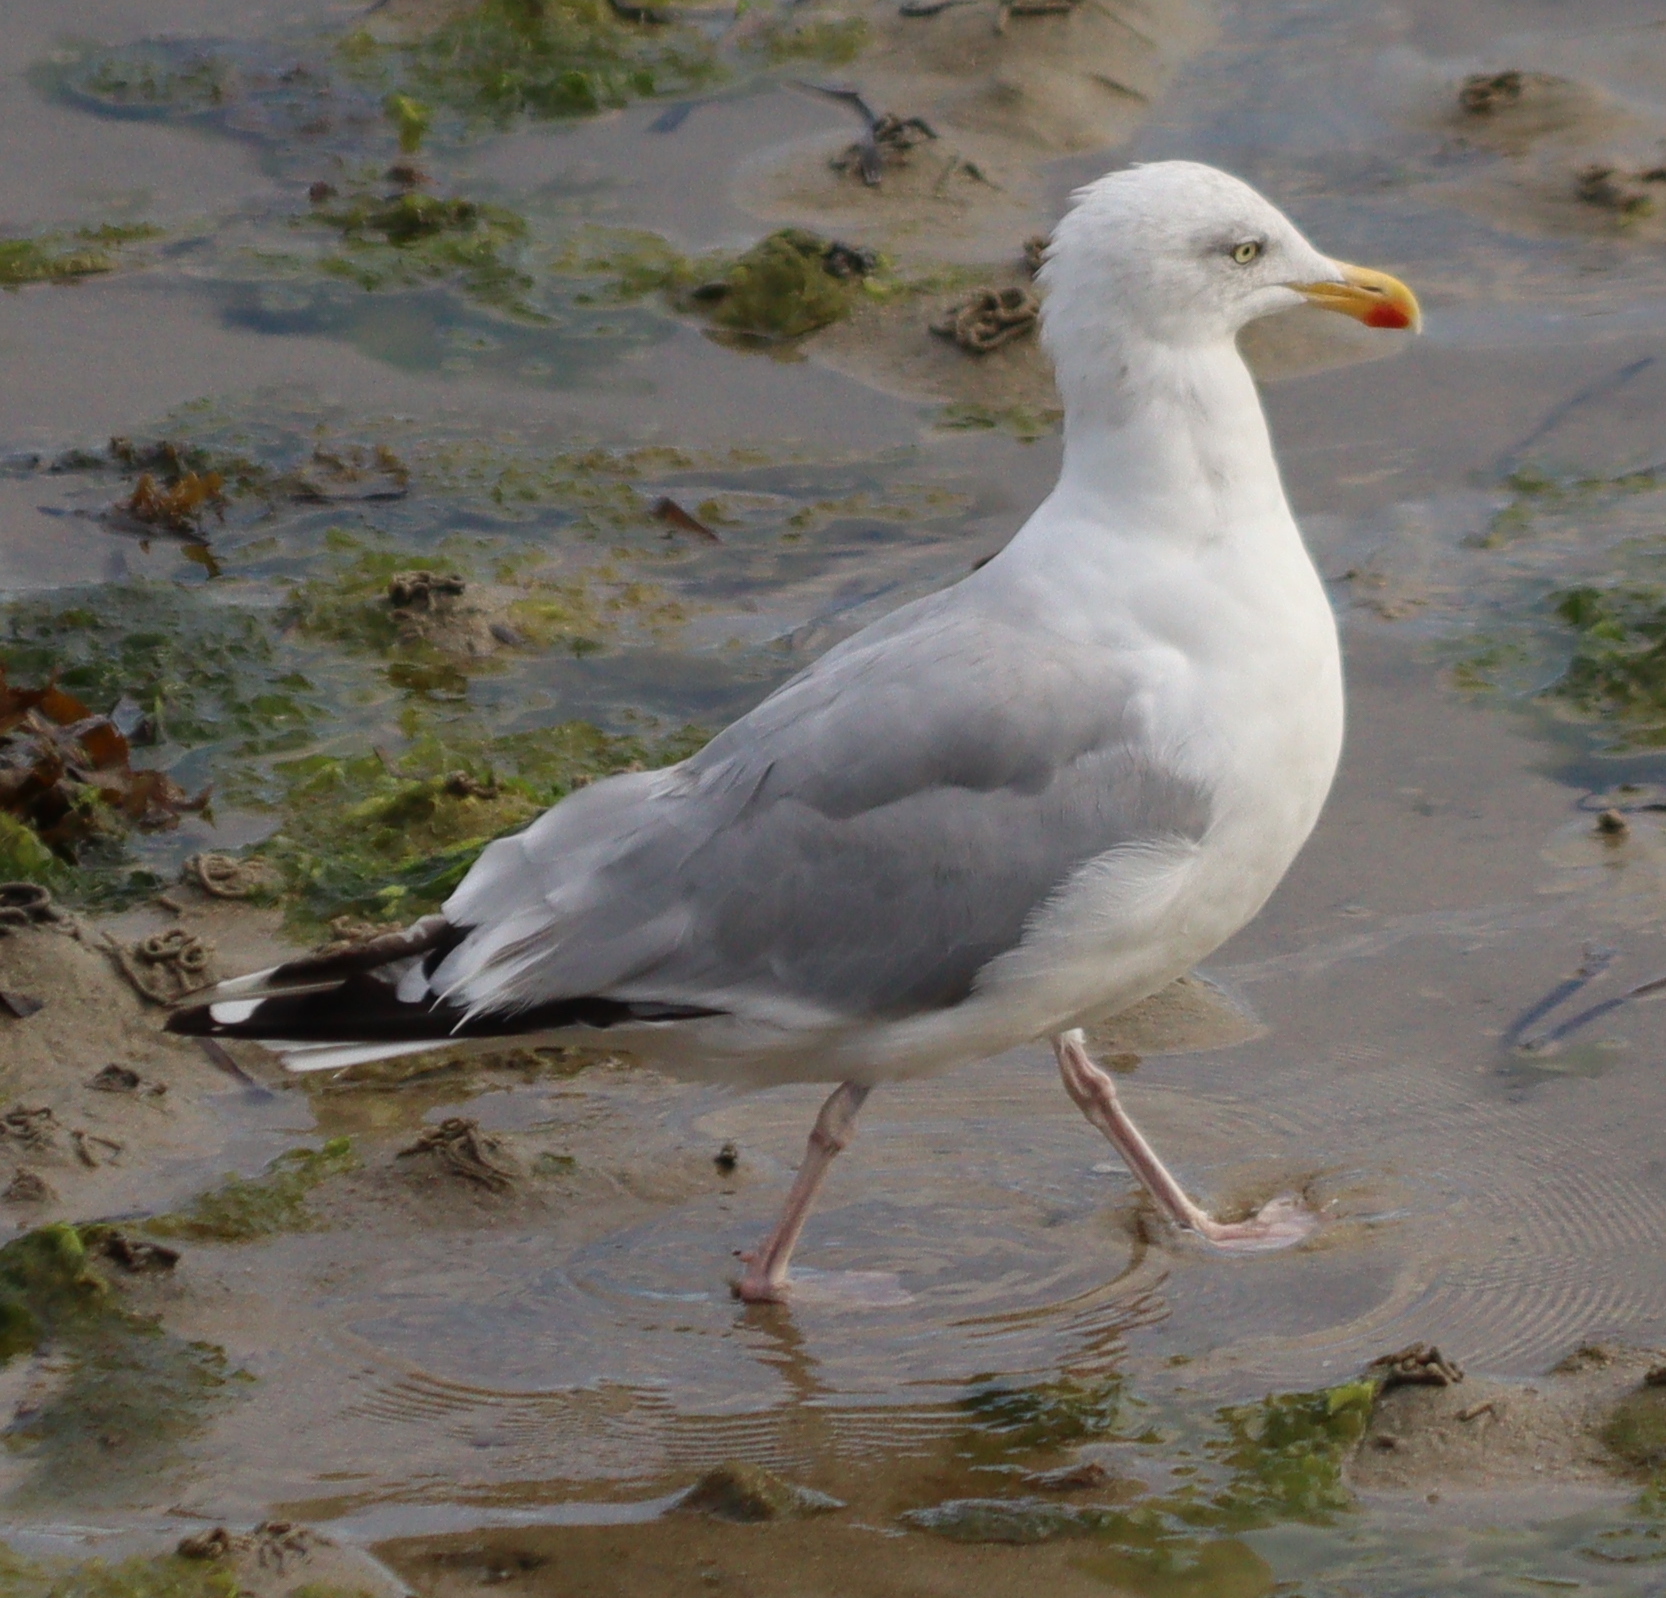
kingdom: Animalia
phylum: Chordata
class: Aves
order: Charadriiformes
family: Laridae
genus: Larus
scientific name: Larus argentatus
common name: Herring gull
